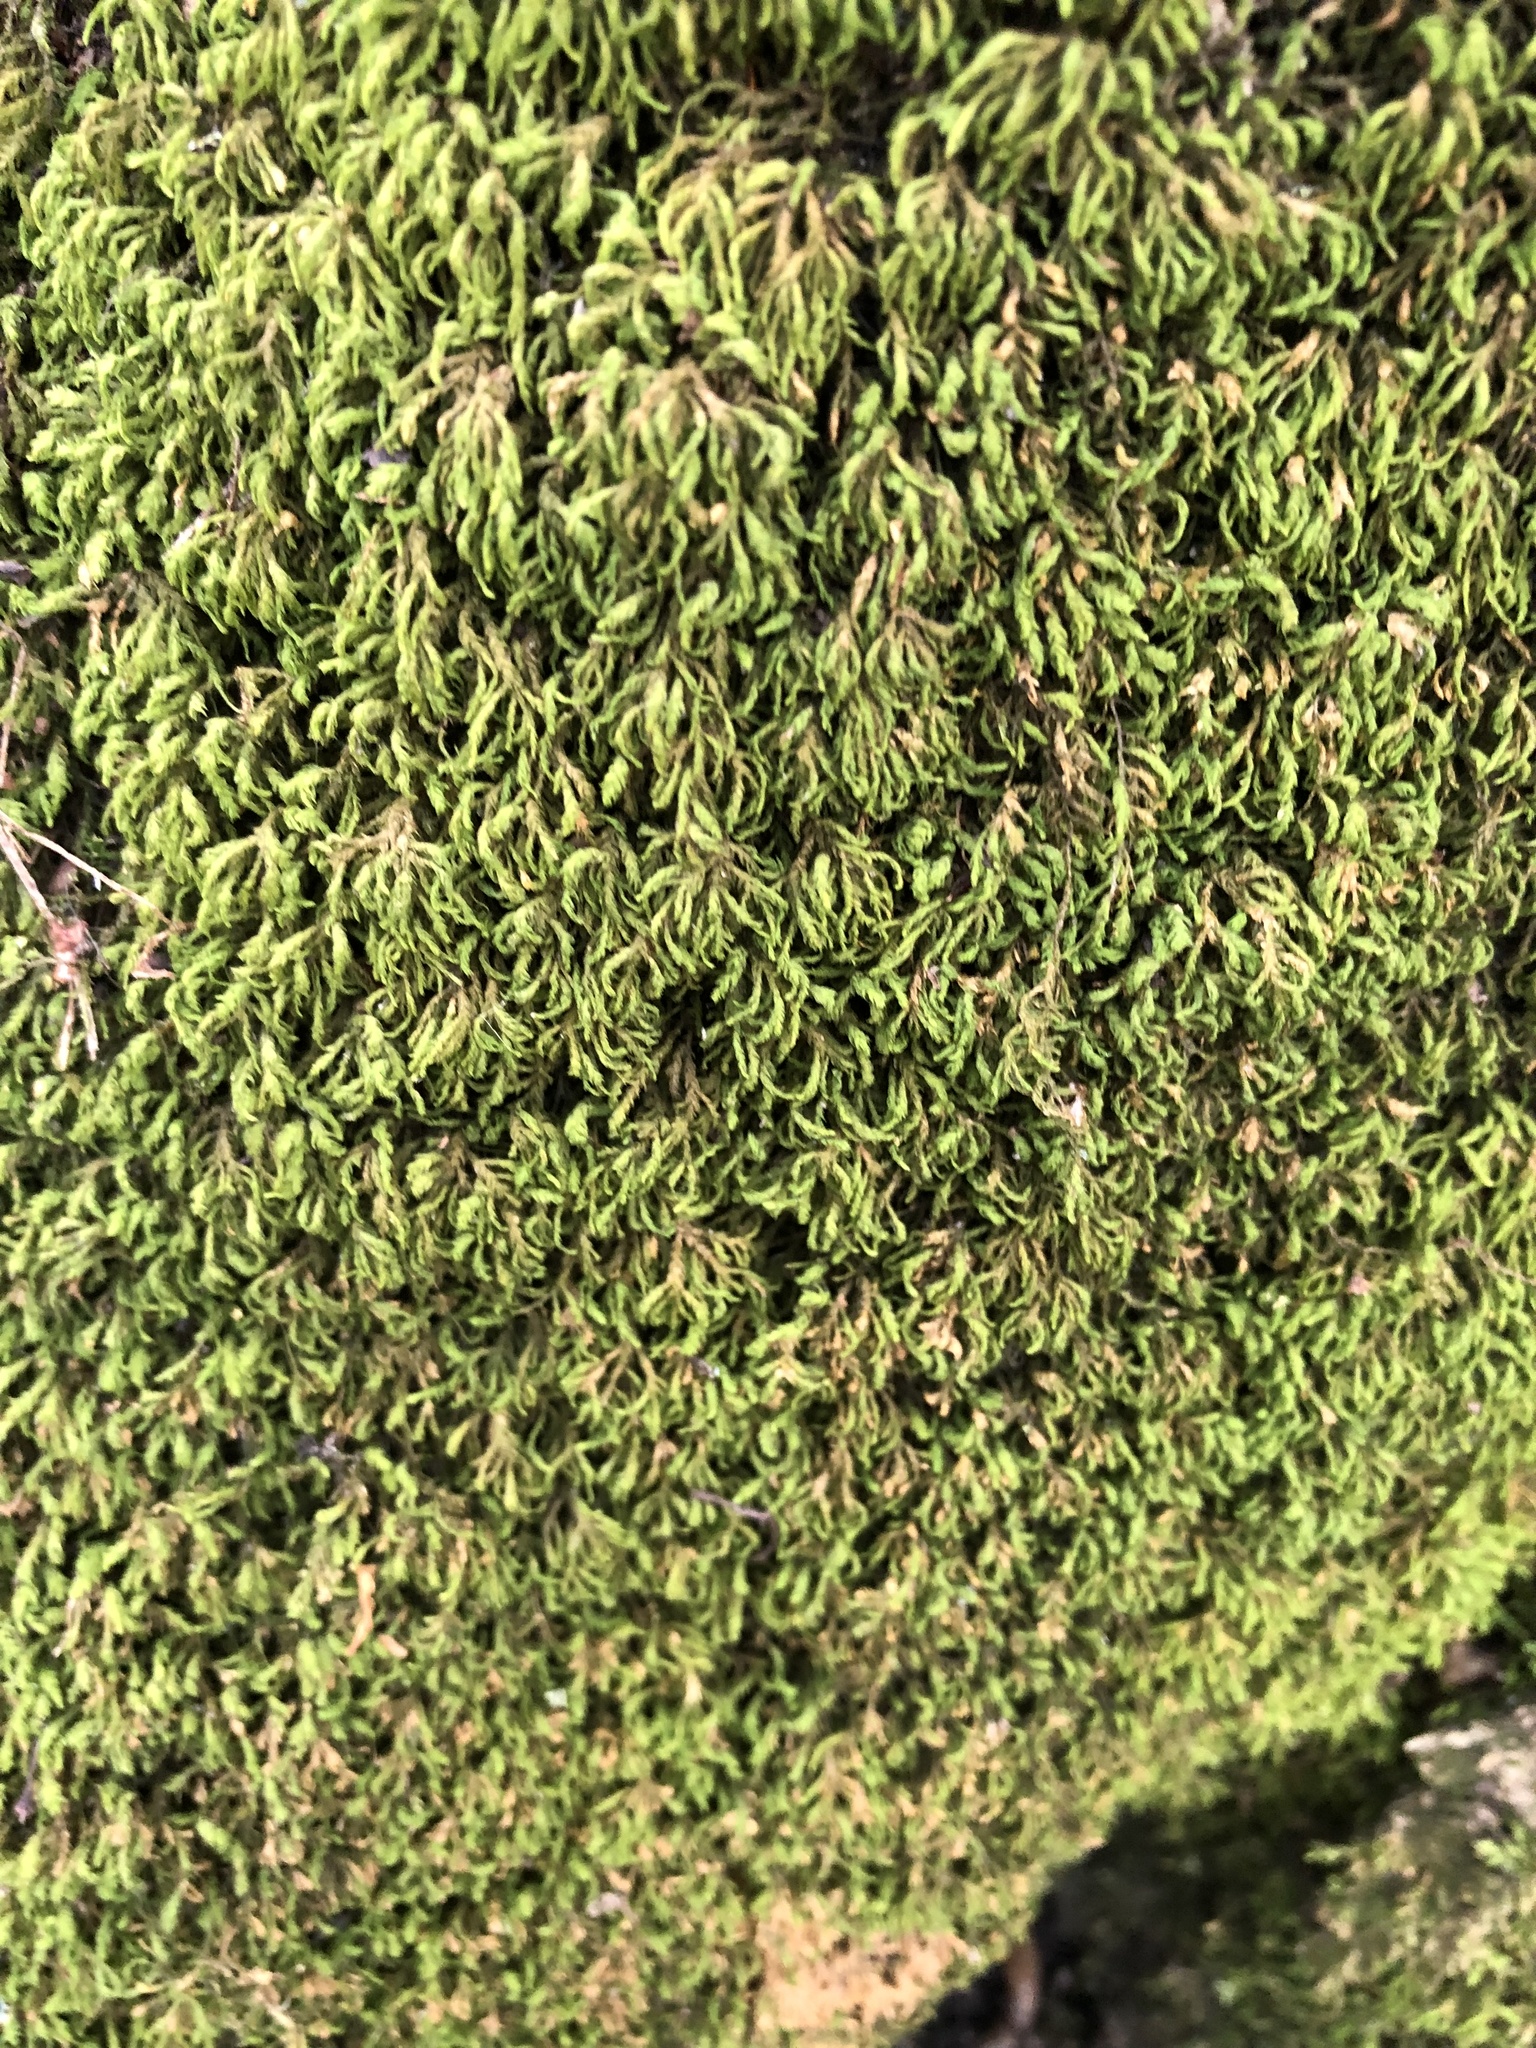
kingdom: Plantae
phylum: Bryophyta
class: Bryopsida
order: Hypnales
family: Neckeraceae
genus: Pseudanomodon
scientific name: Pseudanomodon attenuatus
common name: Tree-skirt moss
